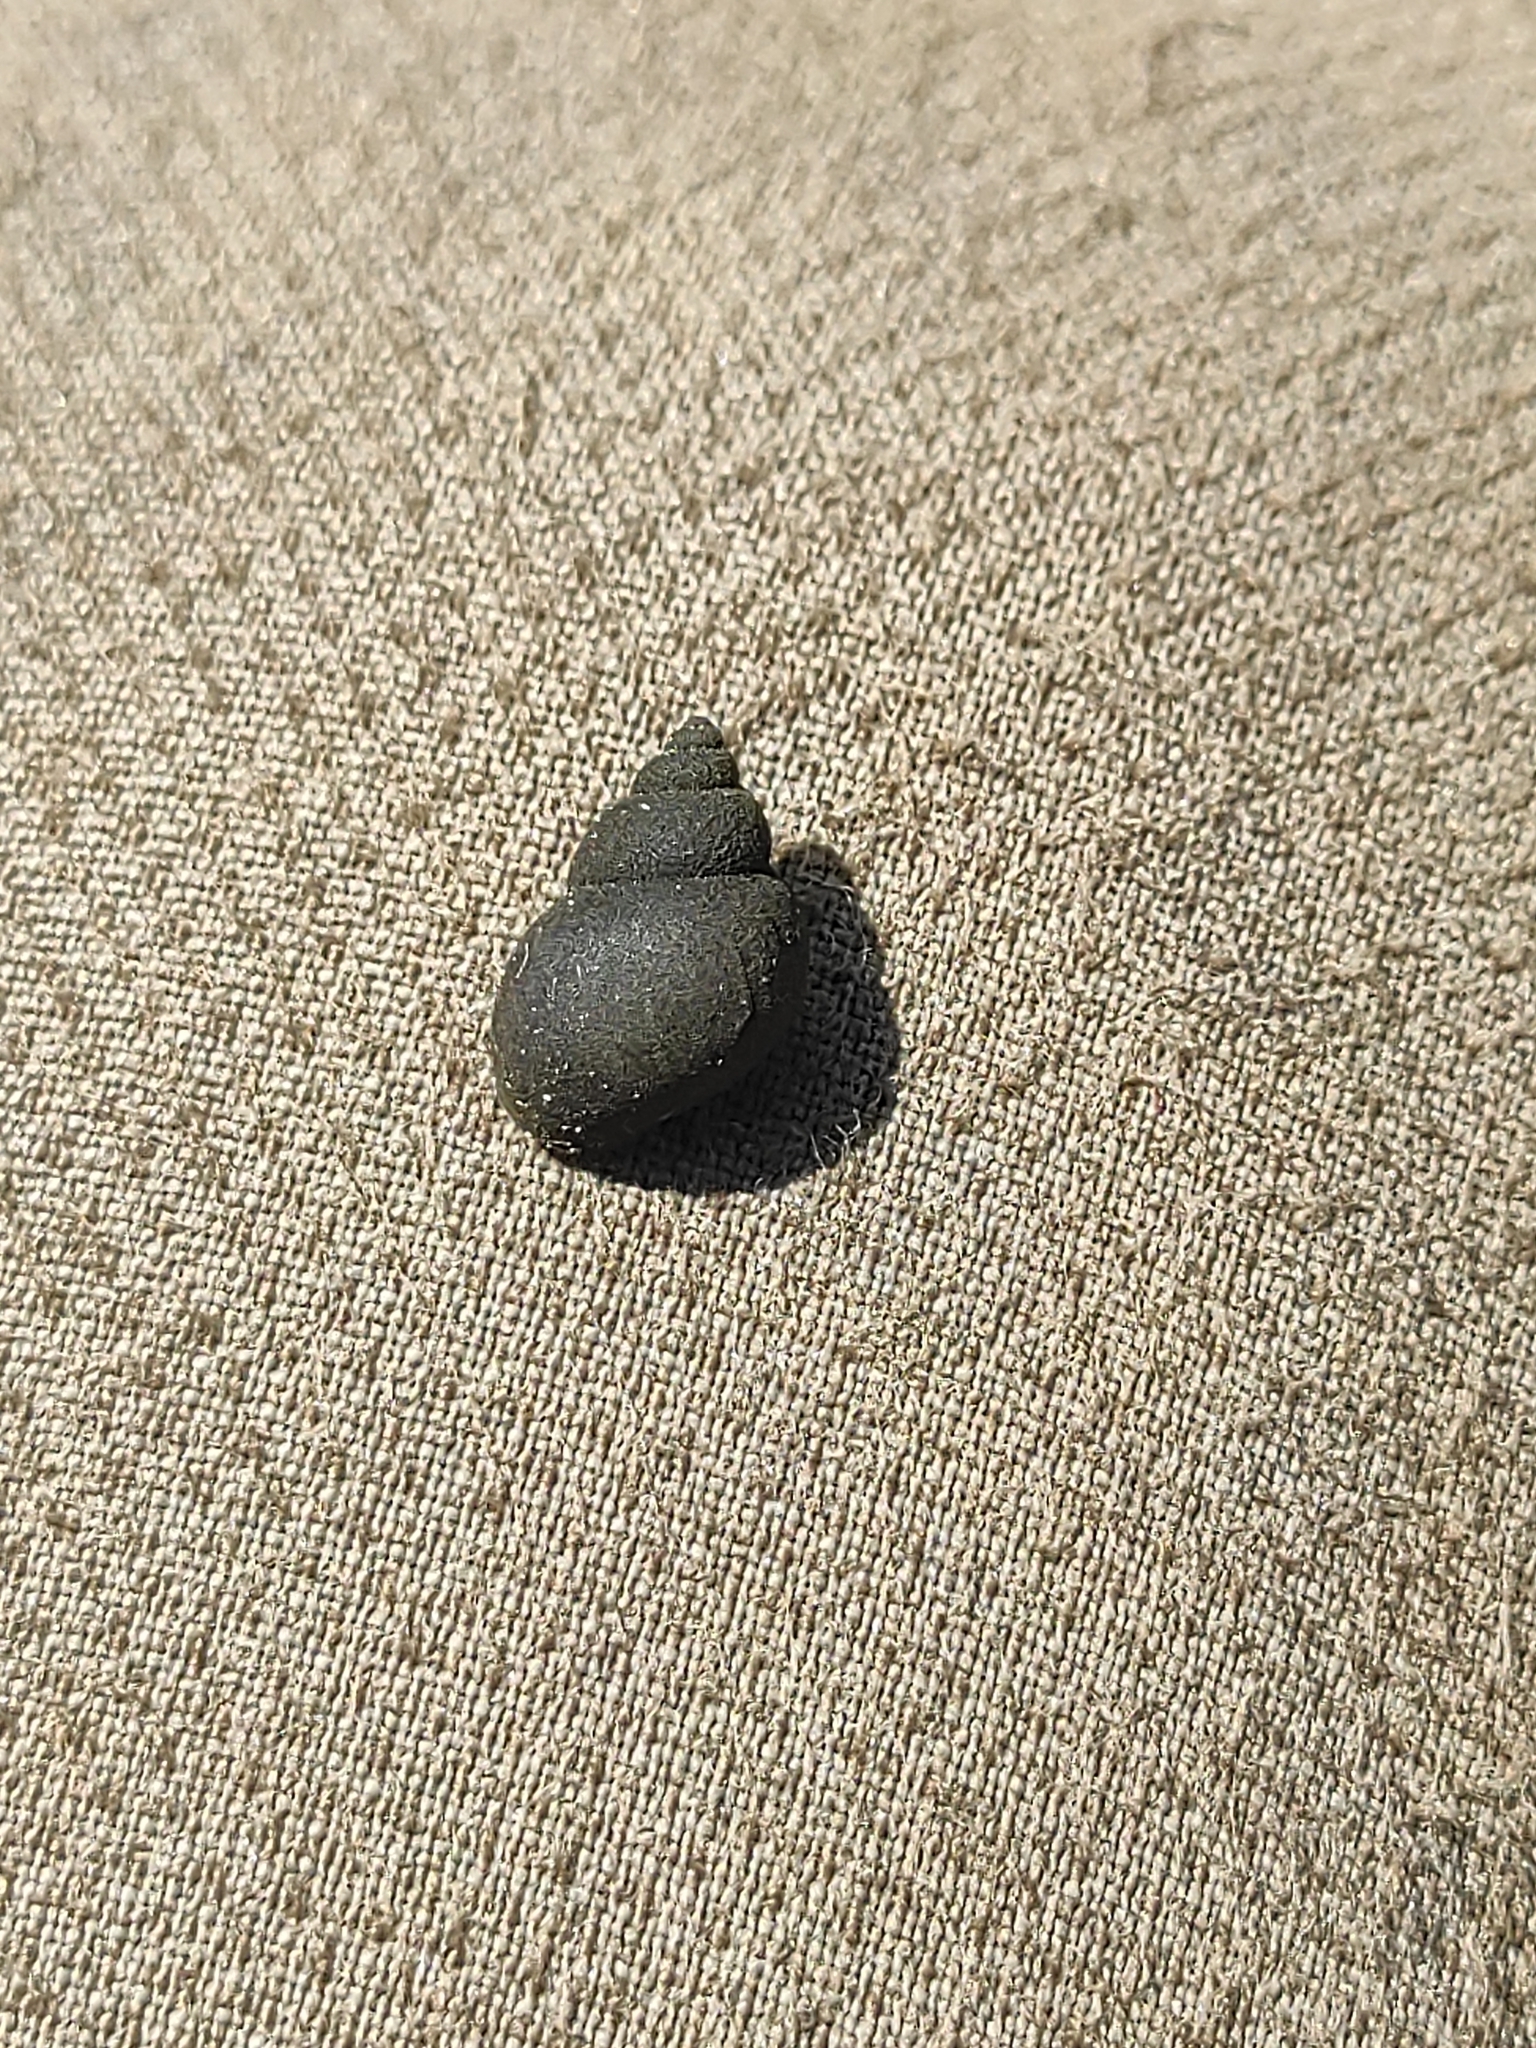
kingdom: Animalia
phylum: Mollusca
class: Gastropoda
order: Littorinimorpha
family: Bithyniidae
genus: Bithynia
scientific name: Bithynia tentaculata
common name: Common bithynia
